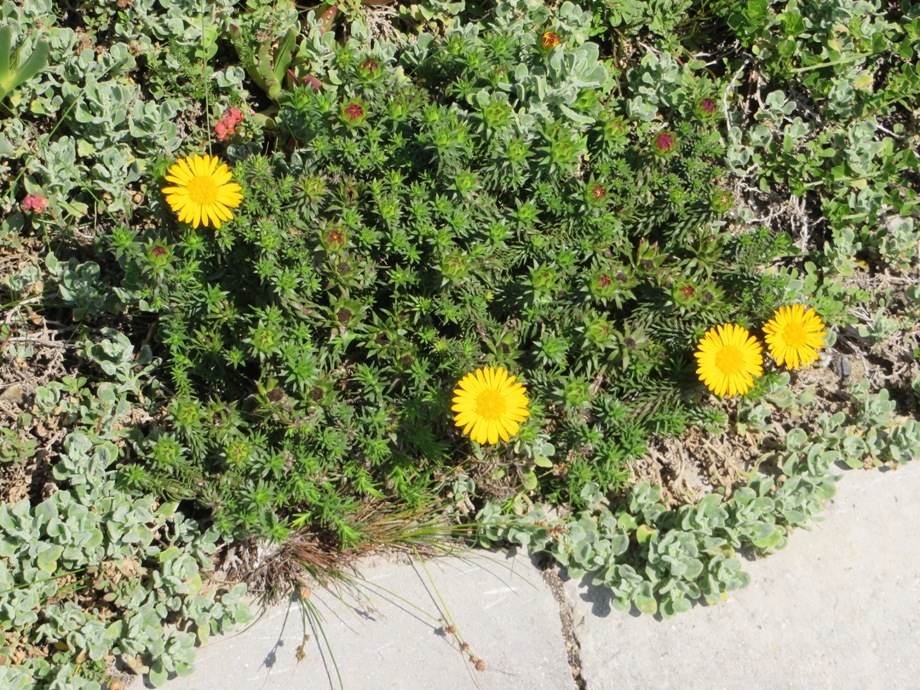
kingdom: Plantae
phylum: Tracheophyta
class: Magnoliopsida
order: Asterales
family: Asteraceae
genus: Oedera
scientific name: Oedera capensis
